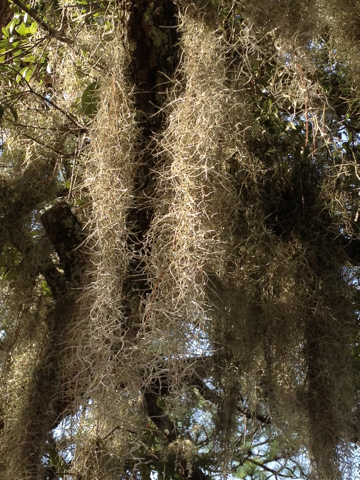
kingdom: Plantae
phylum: Tracheophyta
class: Liliopsida
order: Poales
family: Bromeliaceae
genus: Tillandsia
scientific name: Tillandsia usneoides
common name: Spanish moss
